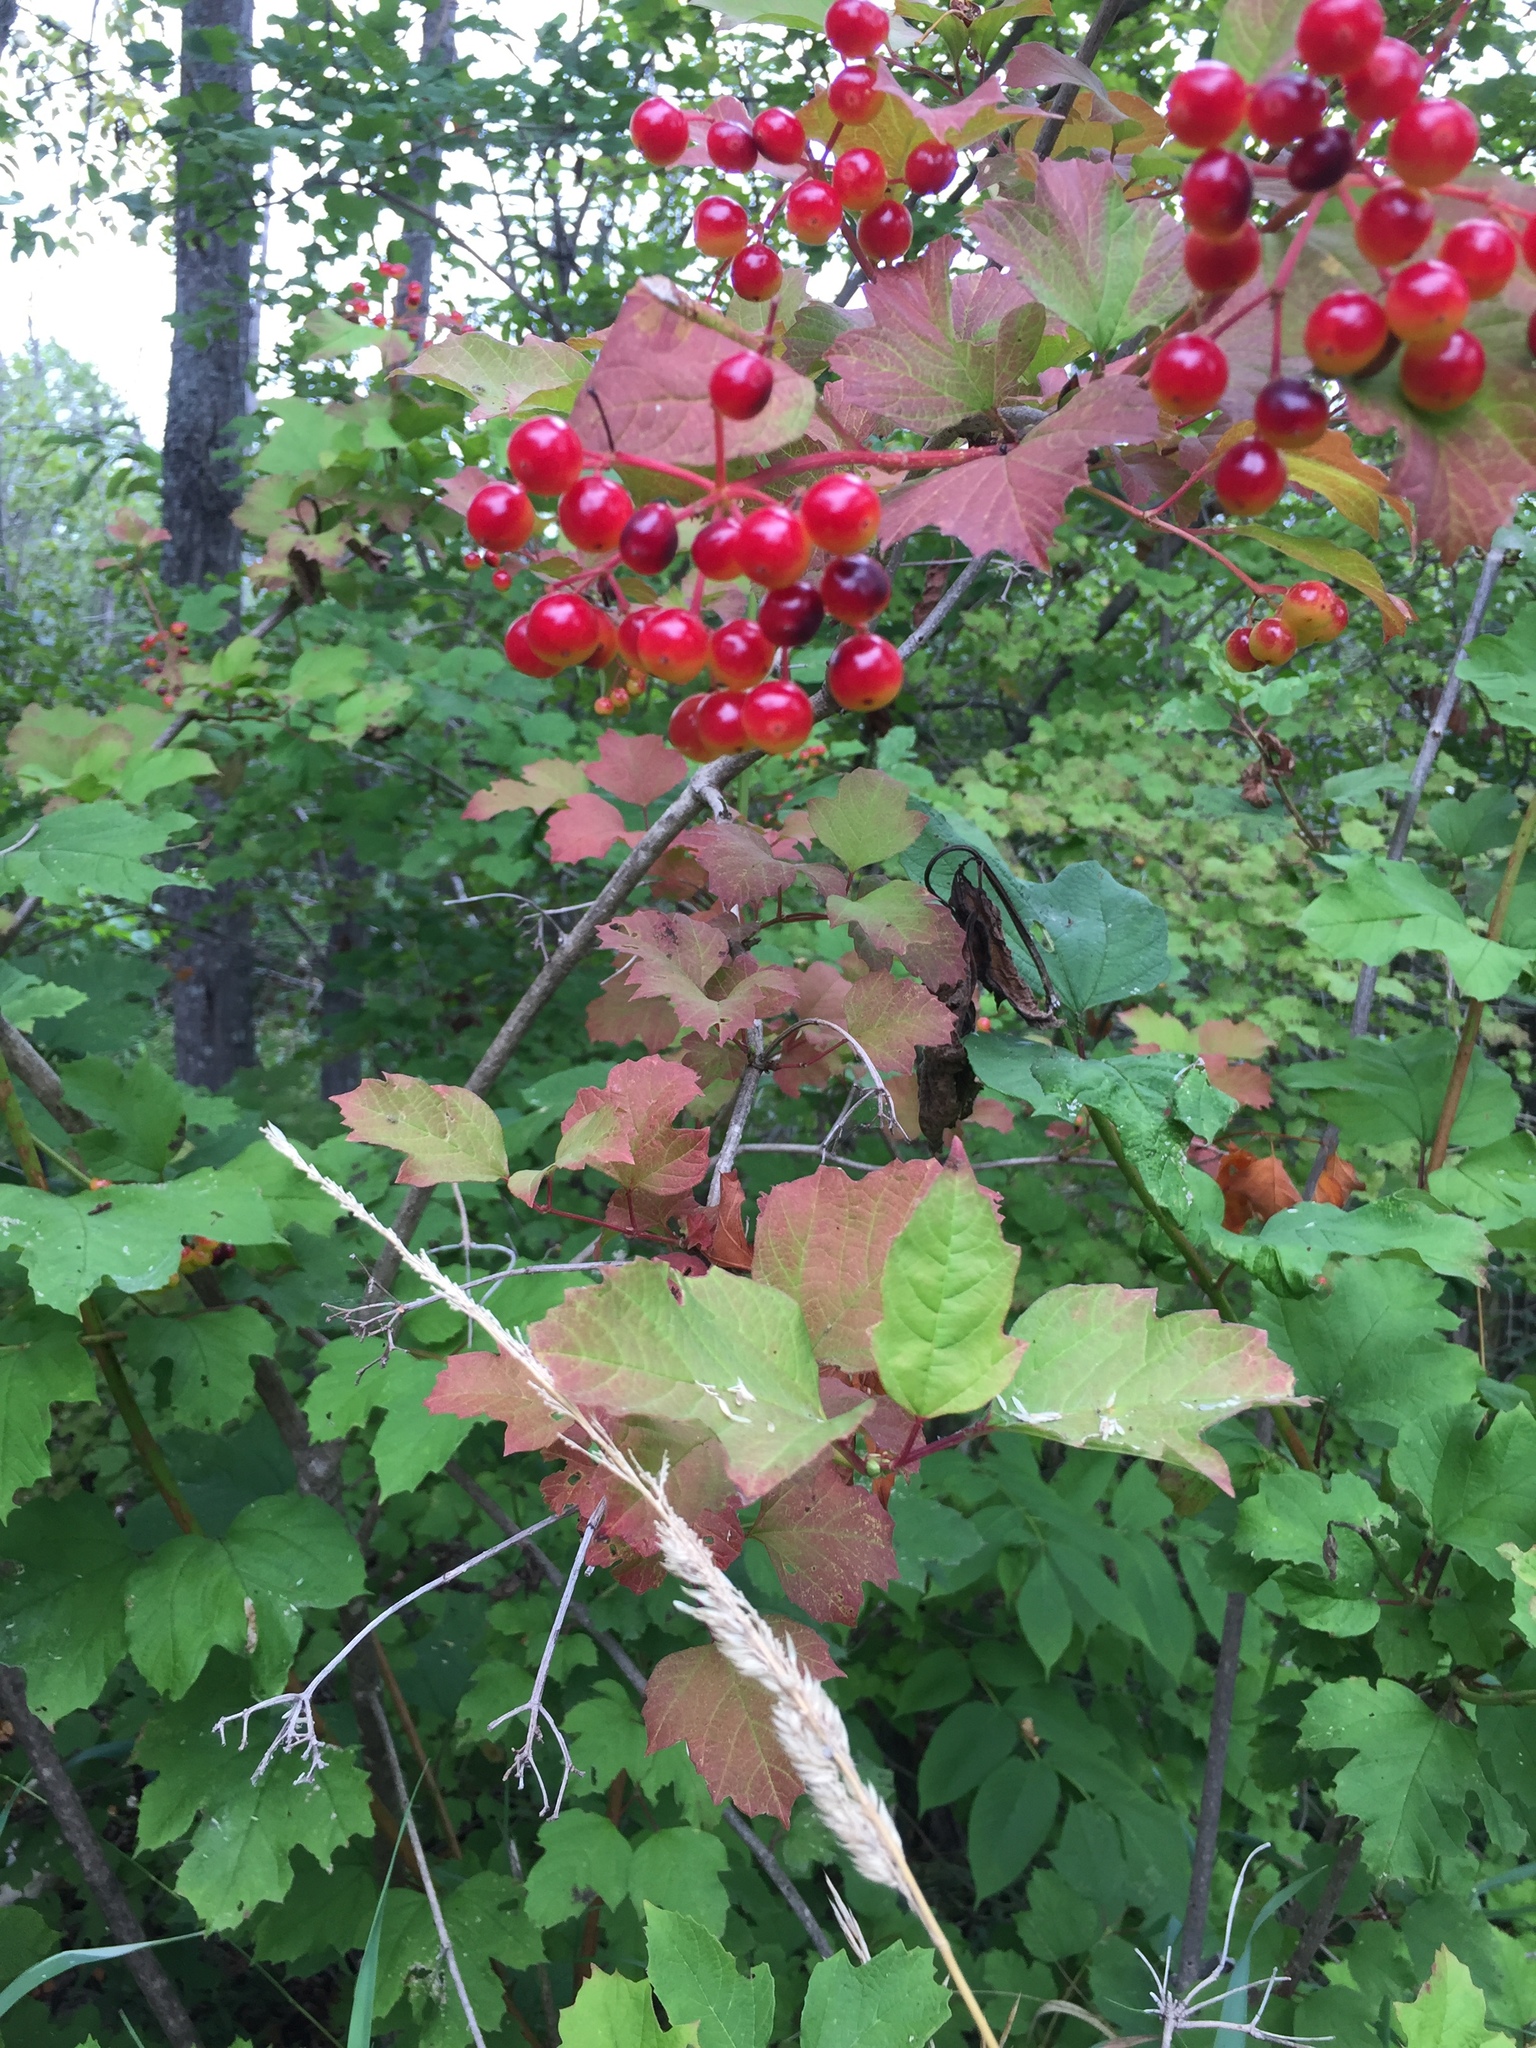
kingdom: Plantae
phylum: Tracheophyta
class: Magnoliopsida
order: Dipsacales
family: Viburnaceae
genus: Viburnum
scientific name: Viburnum opulus
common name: Guelder-rose
